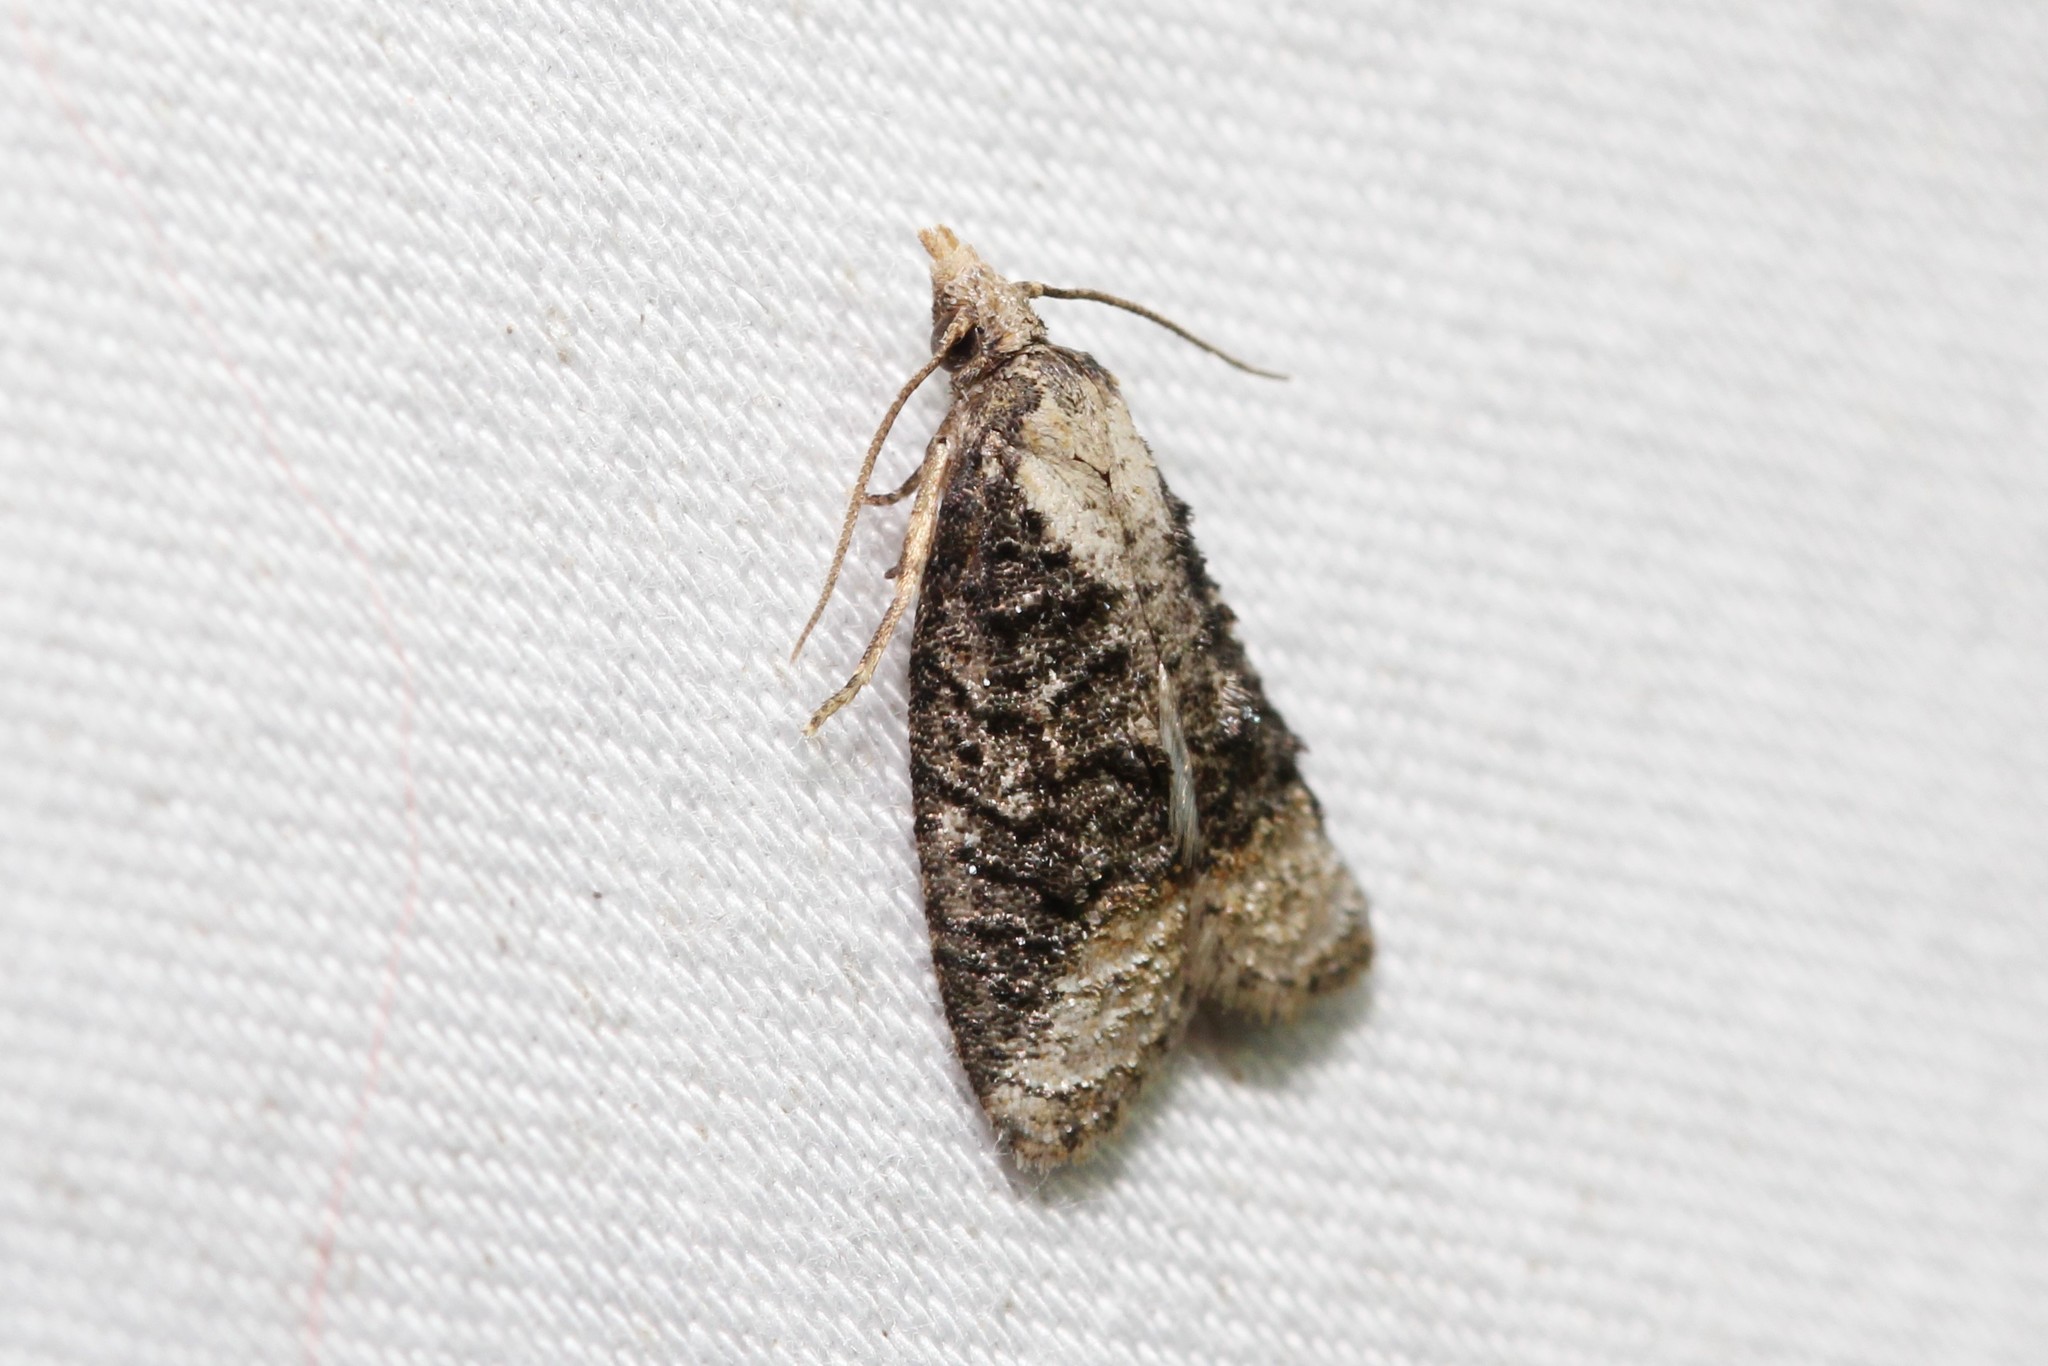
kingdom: Animalia
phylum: Arthropoda
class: Insecta
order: Lepidoptera
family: Tortricidae
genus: Platynota
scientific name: Platynota exasperatana
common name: Exasperating platynota moth
